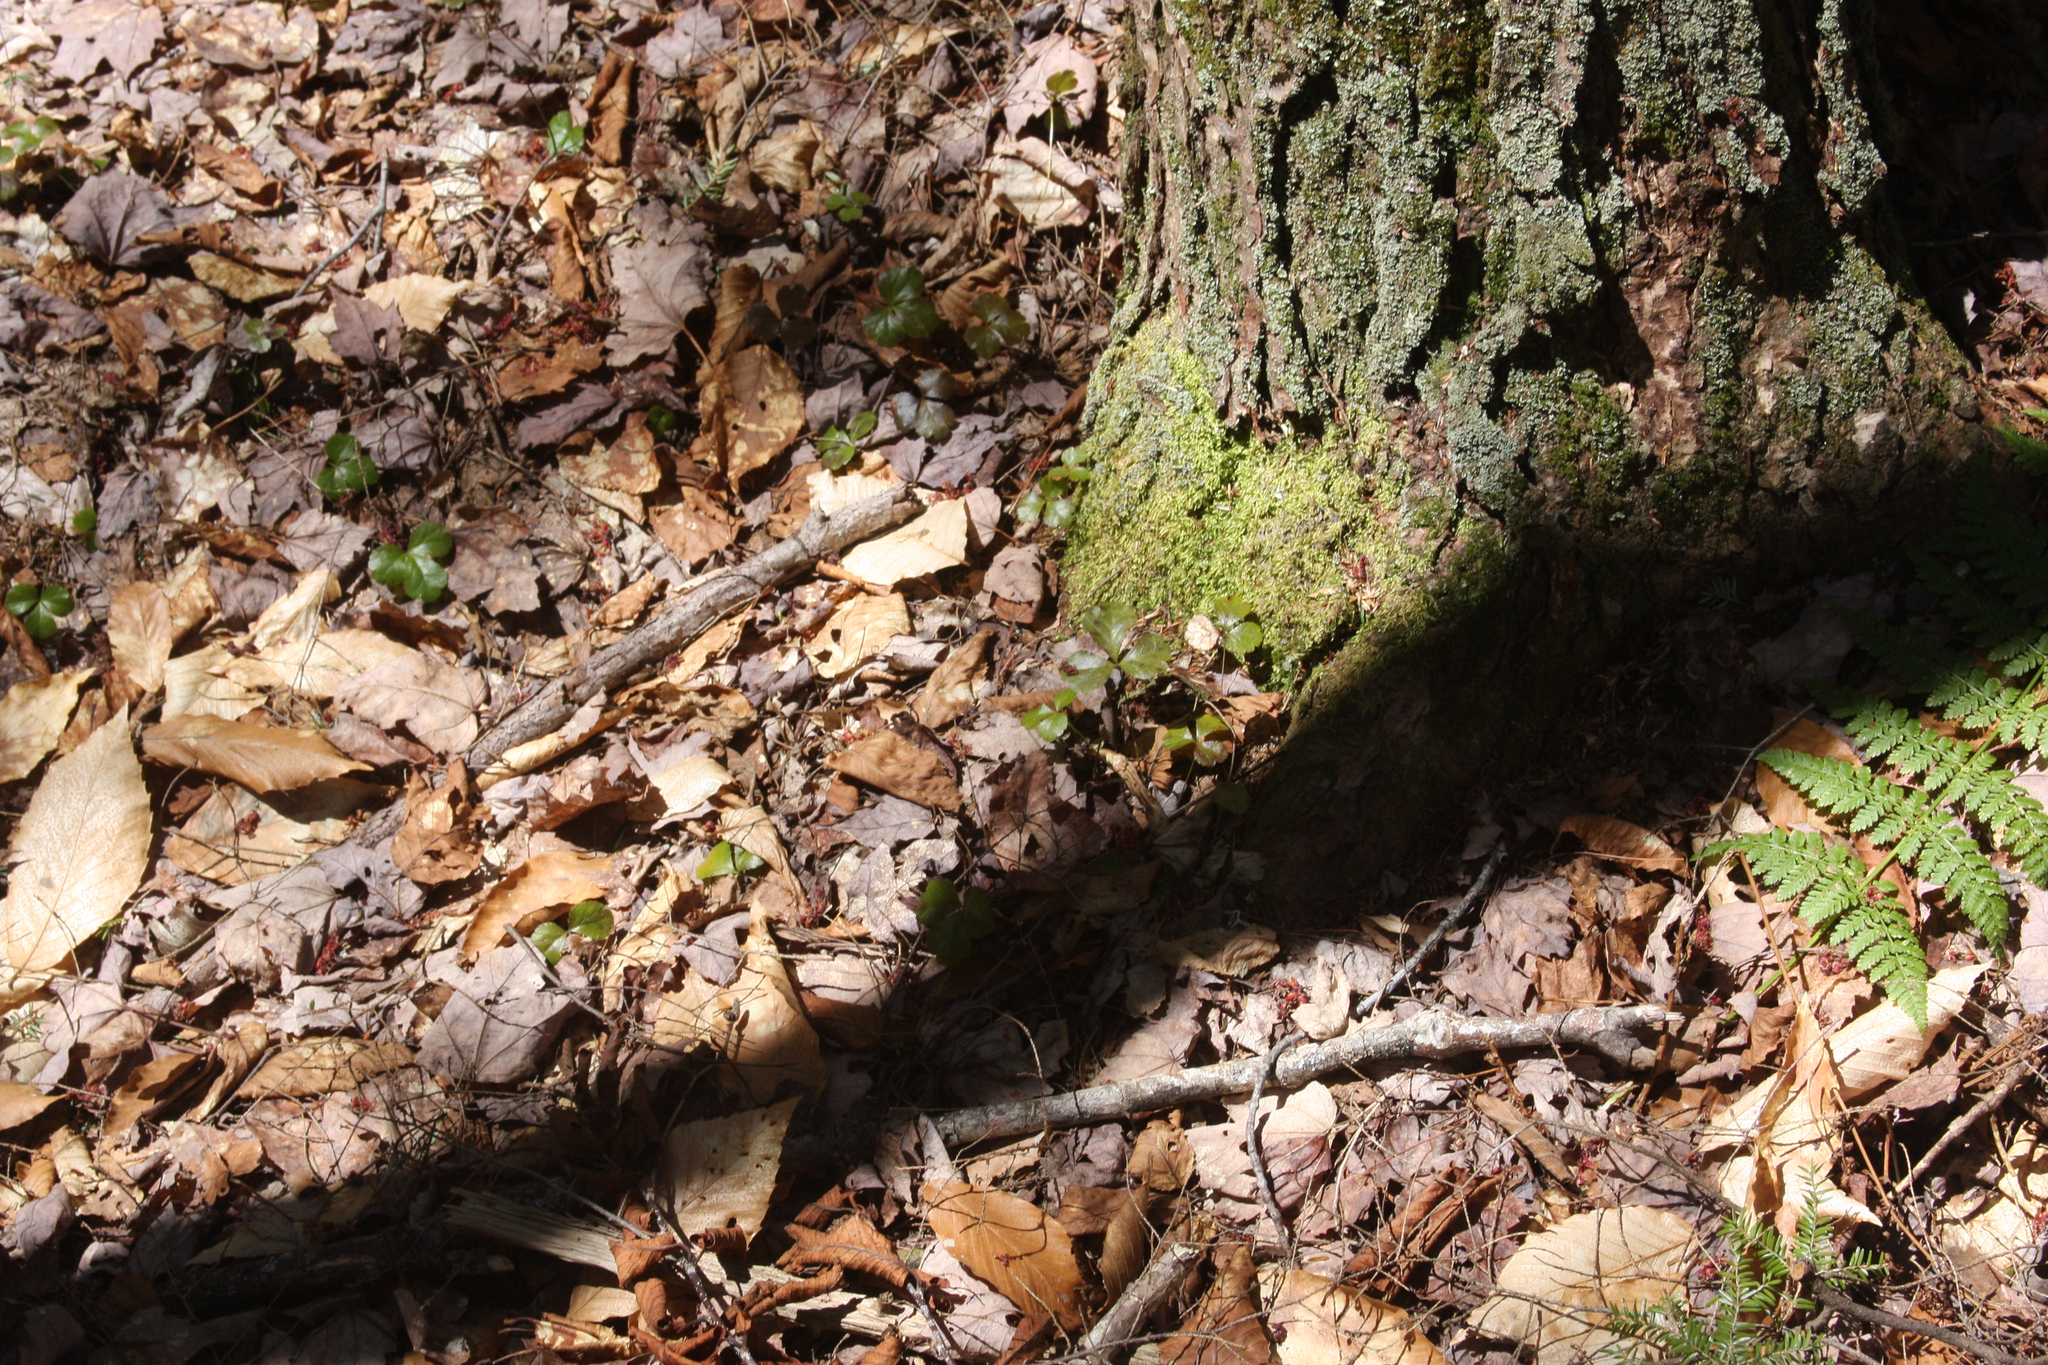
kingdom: Plantae
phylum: Tracheophyta
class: Magnoliopsida
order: Ranunculales
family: Ranunculaceae
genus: Coptis
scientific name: Coptis trifolia
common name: Canker-root
